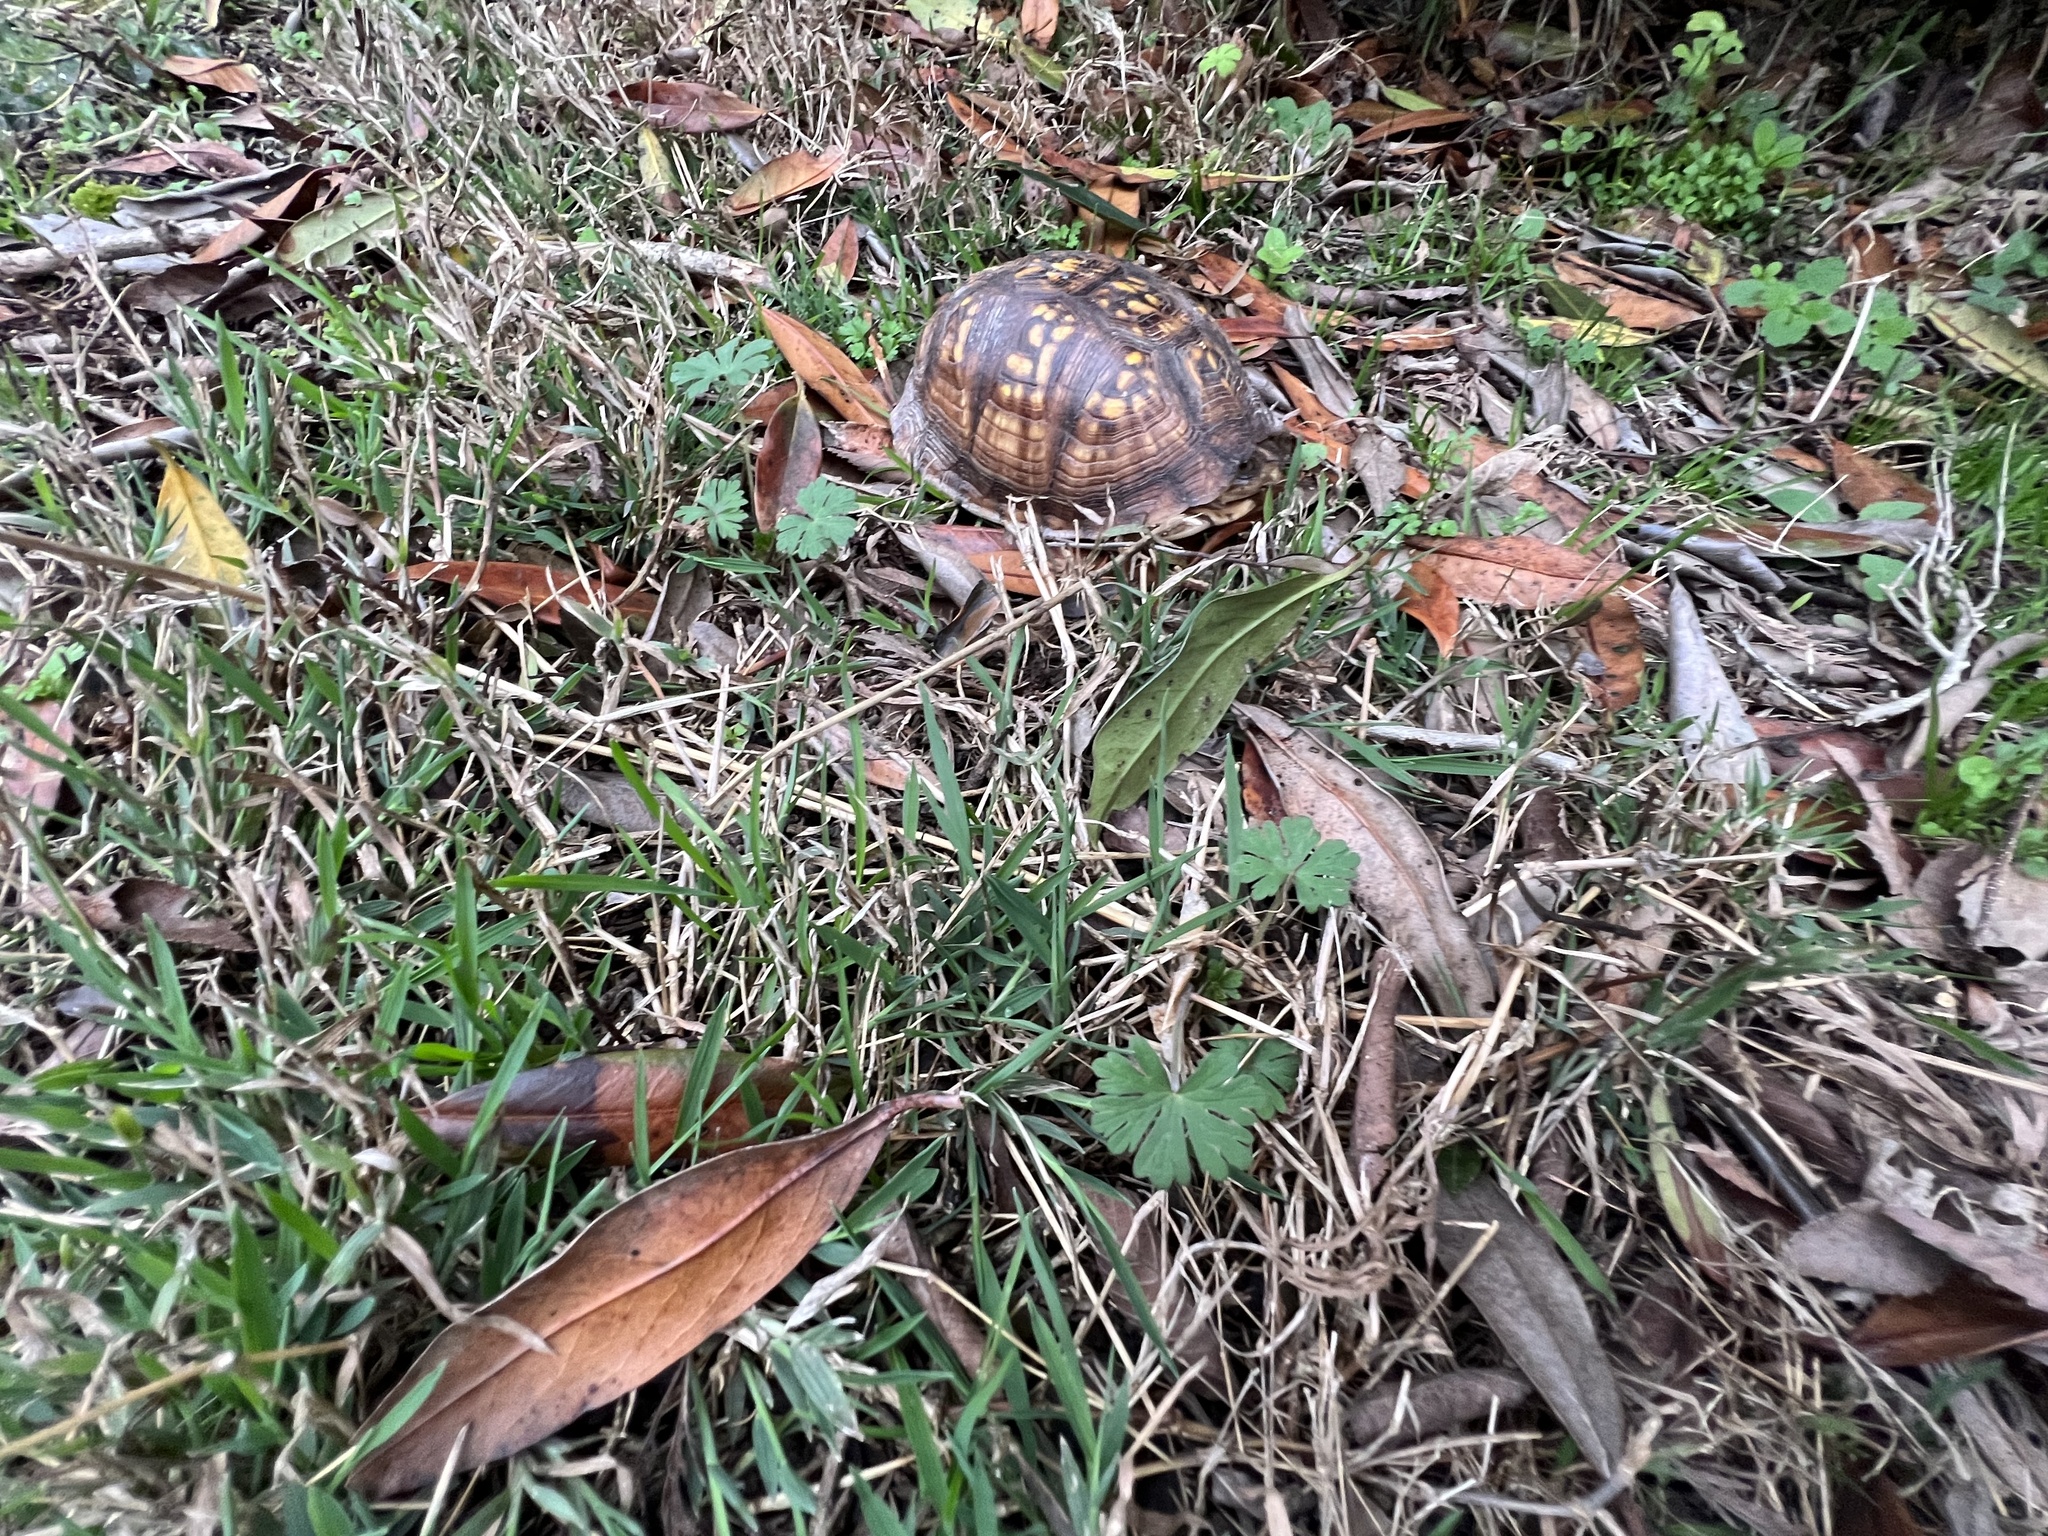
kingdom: Animalia
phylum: Chordata
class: Testudines
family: Emydidae
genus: Terrapene
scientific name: Terrapene carolina
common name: Common box turtle
